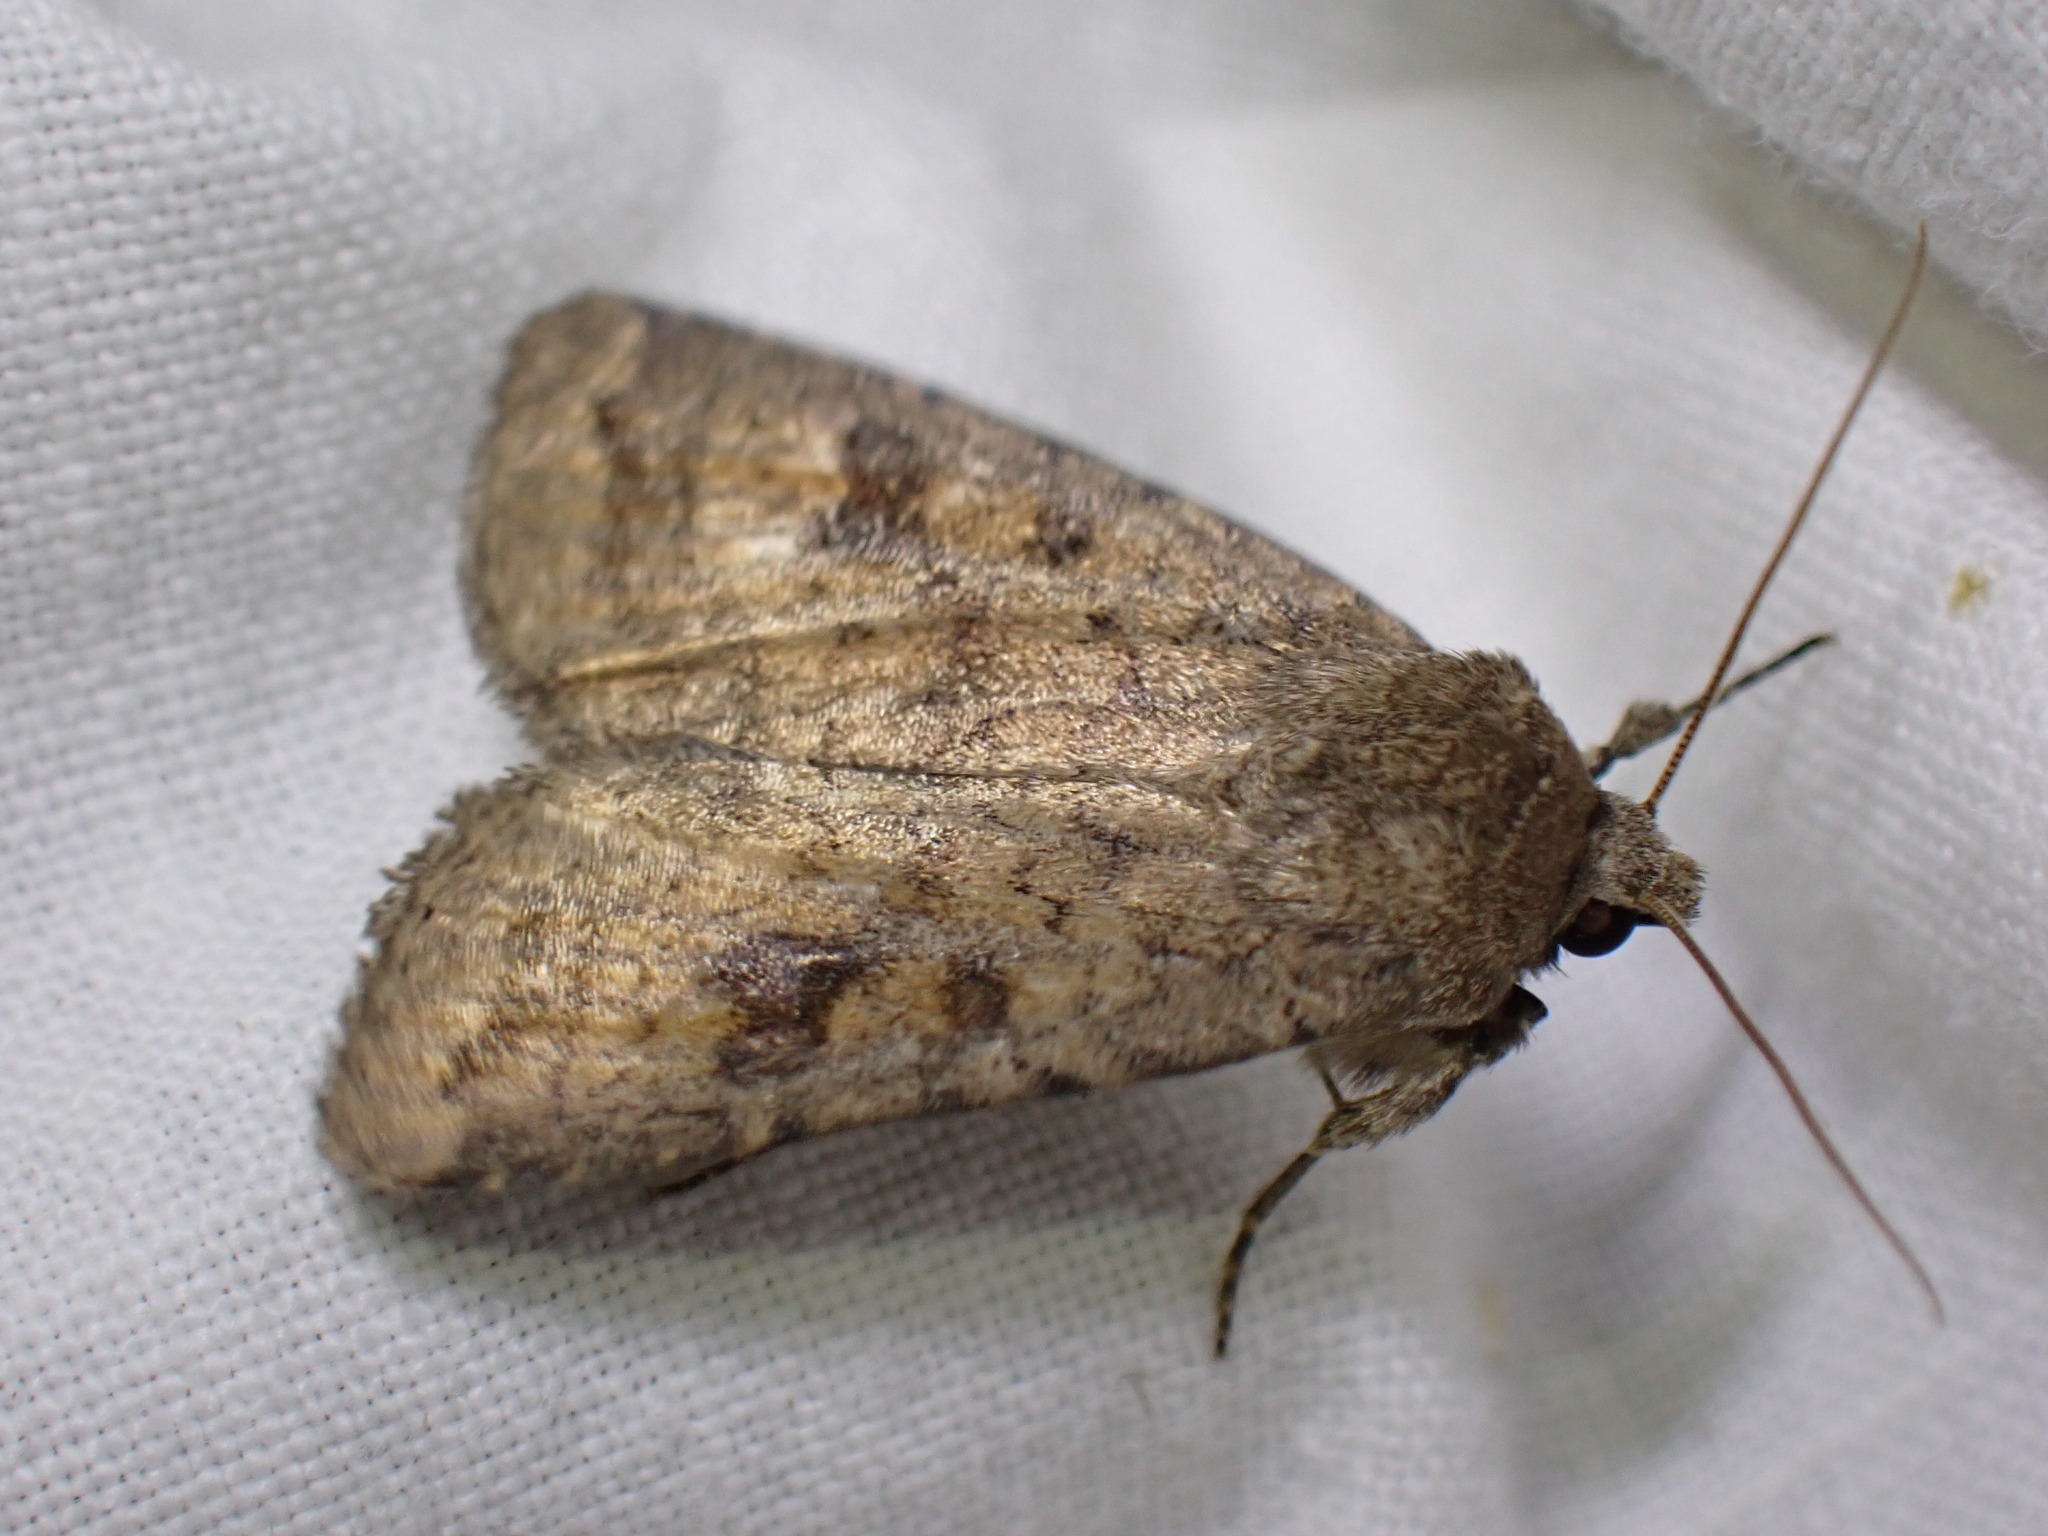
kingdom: Animalia
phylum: Arthropoda
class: Insecta
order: Lepidoptera
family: Noctuidae
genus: Caradrina
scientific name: Caradrina morpheus
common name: Mottled rustic
